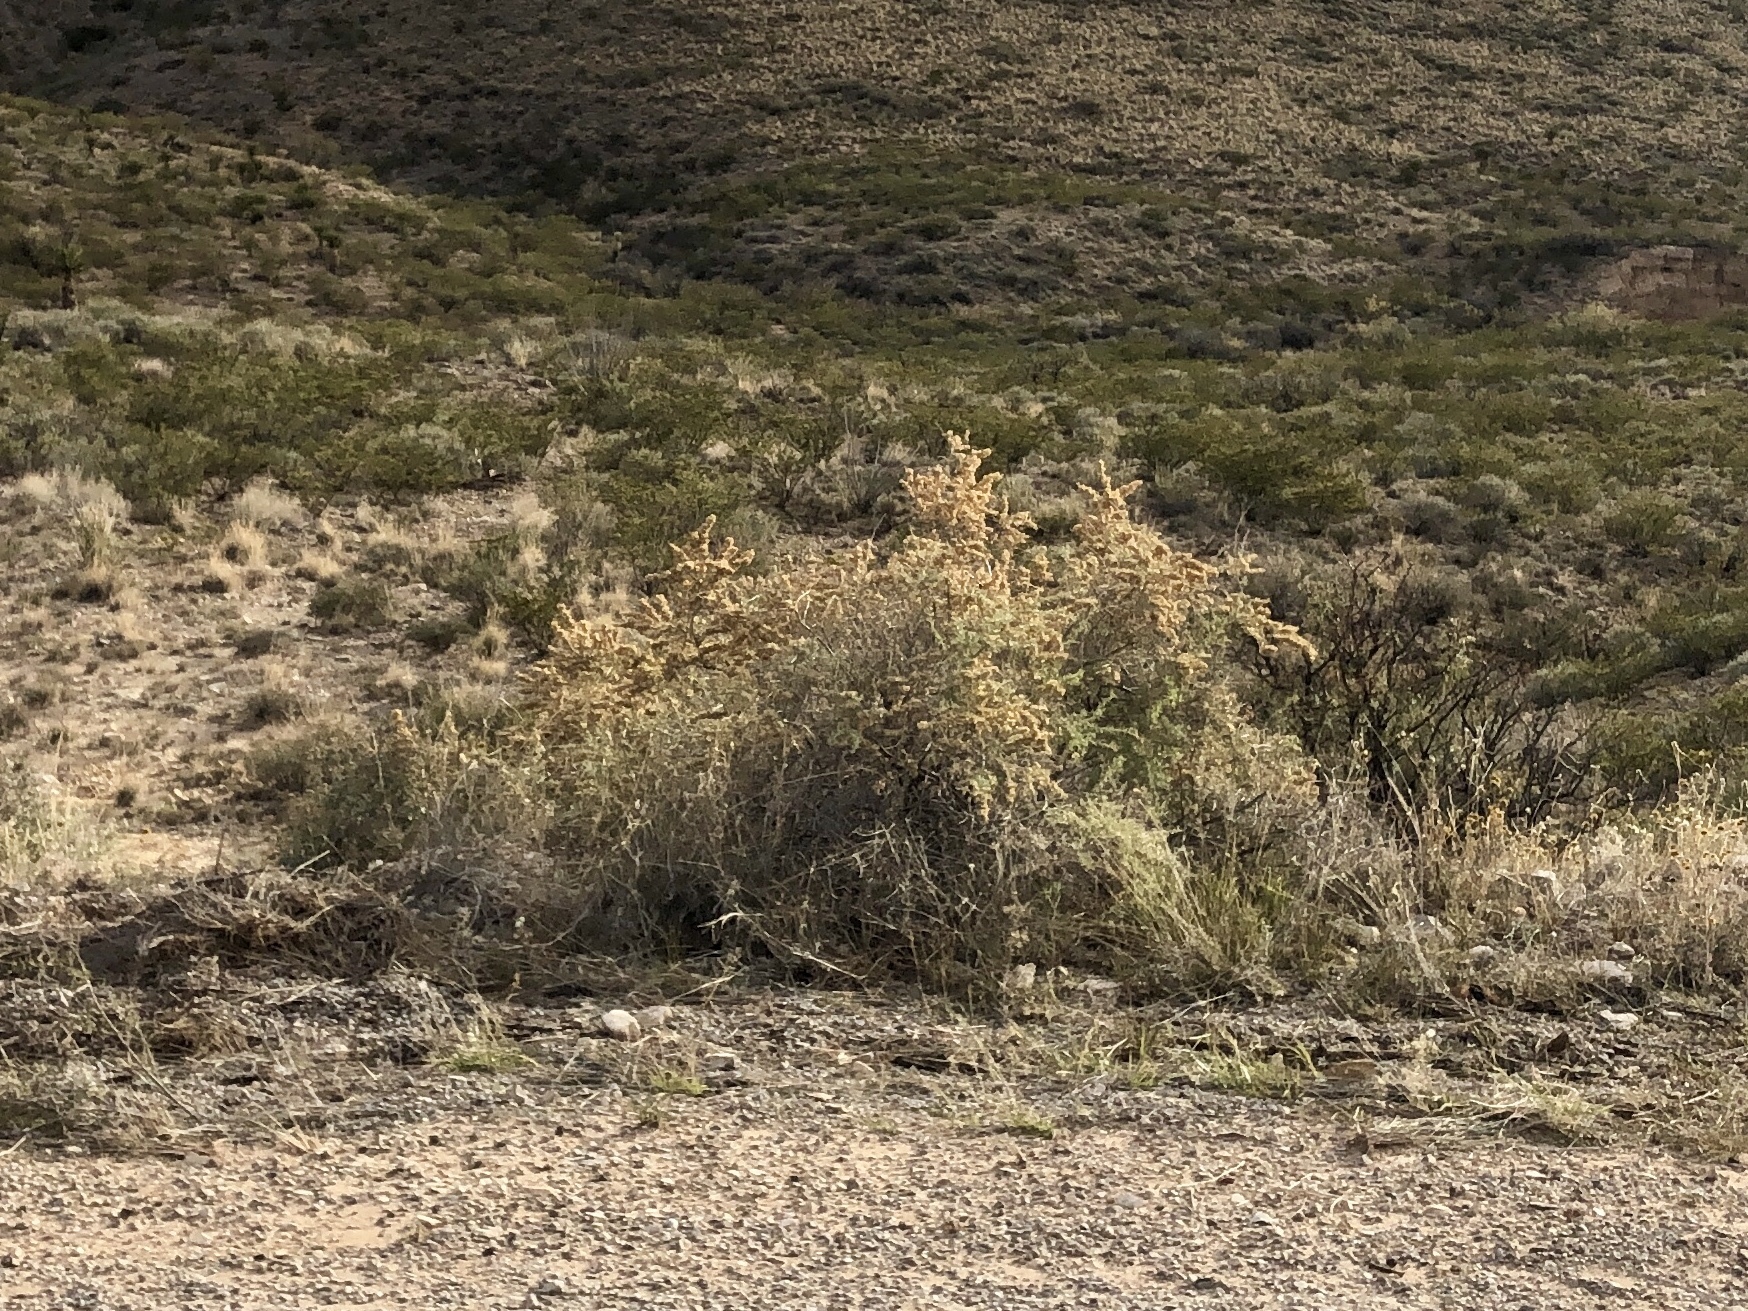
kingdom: Plantae
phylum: Tracheophyta
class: Magnoliopsida
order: Caryophyllales
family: Amaranthaceae
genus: Atriplex
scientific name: Atriplex canescens
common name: Four-wing saltbush
